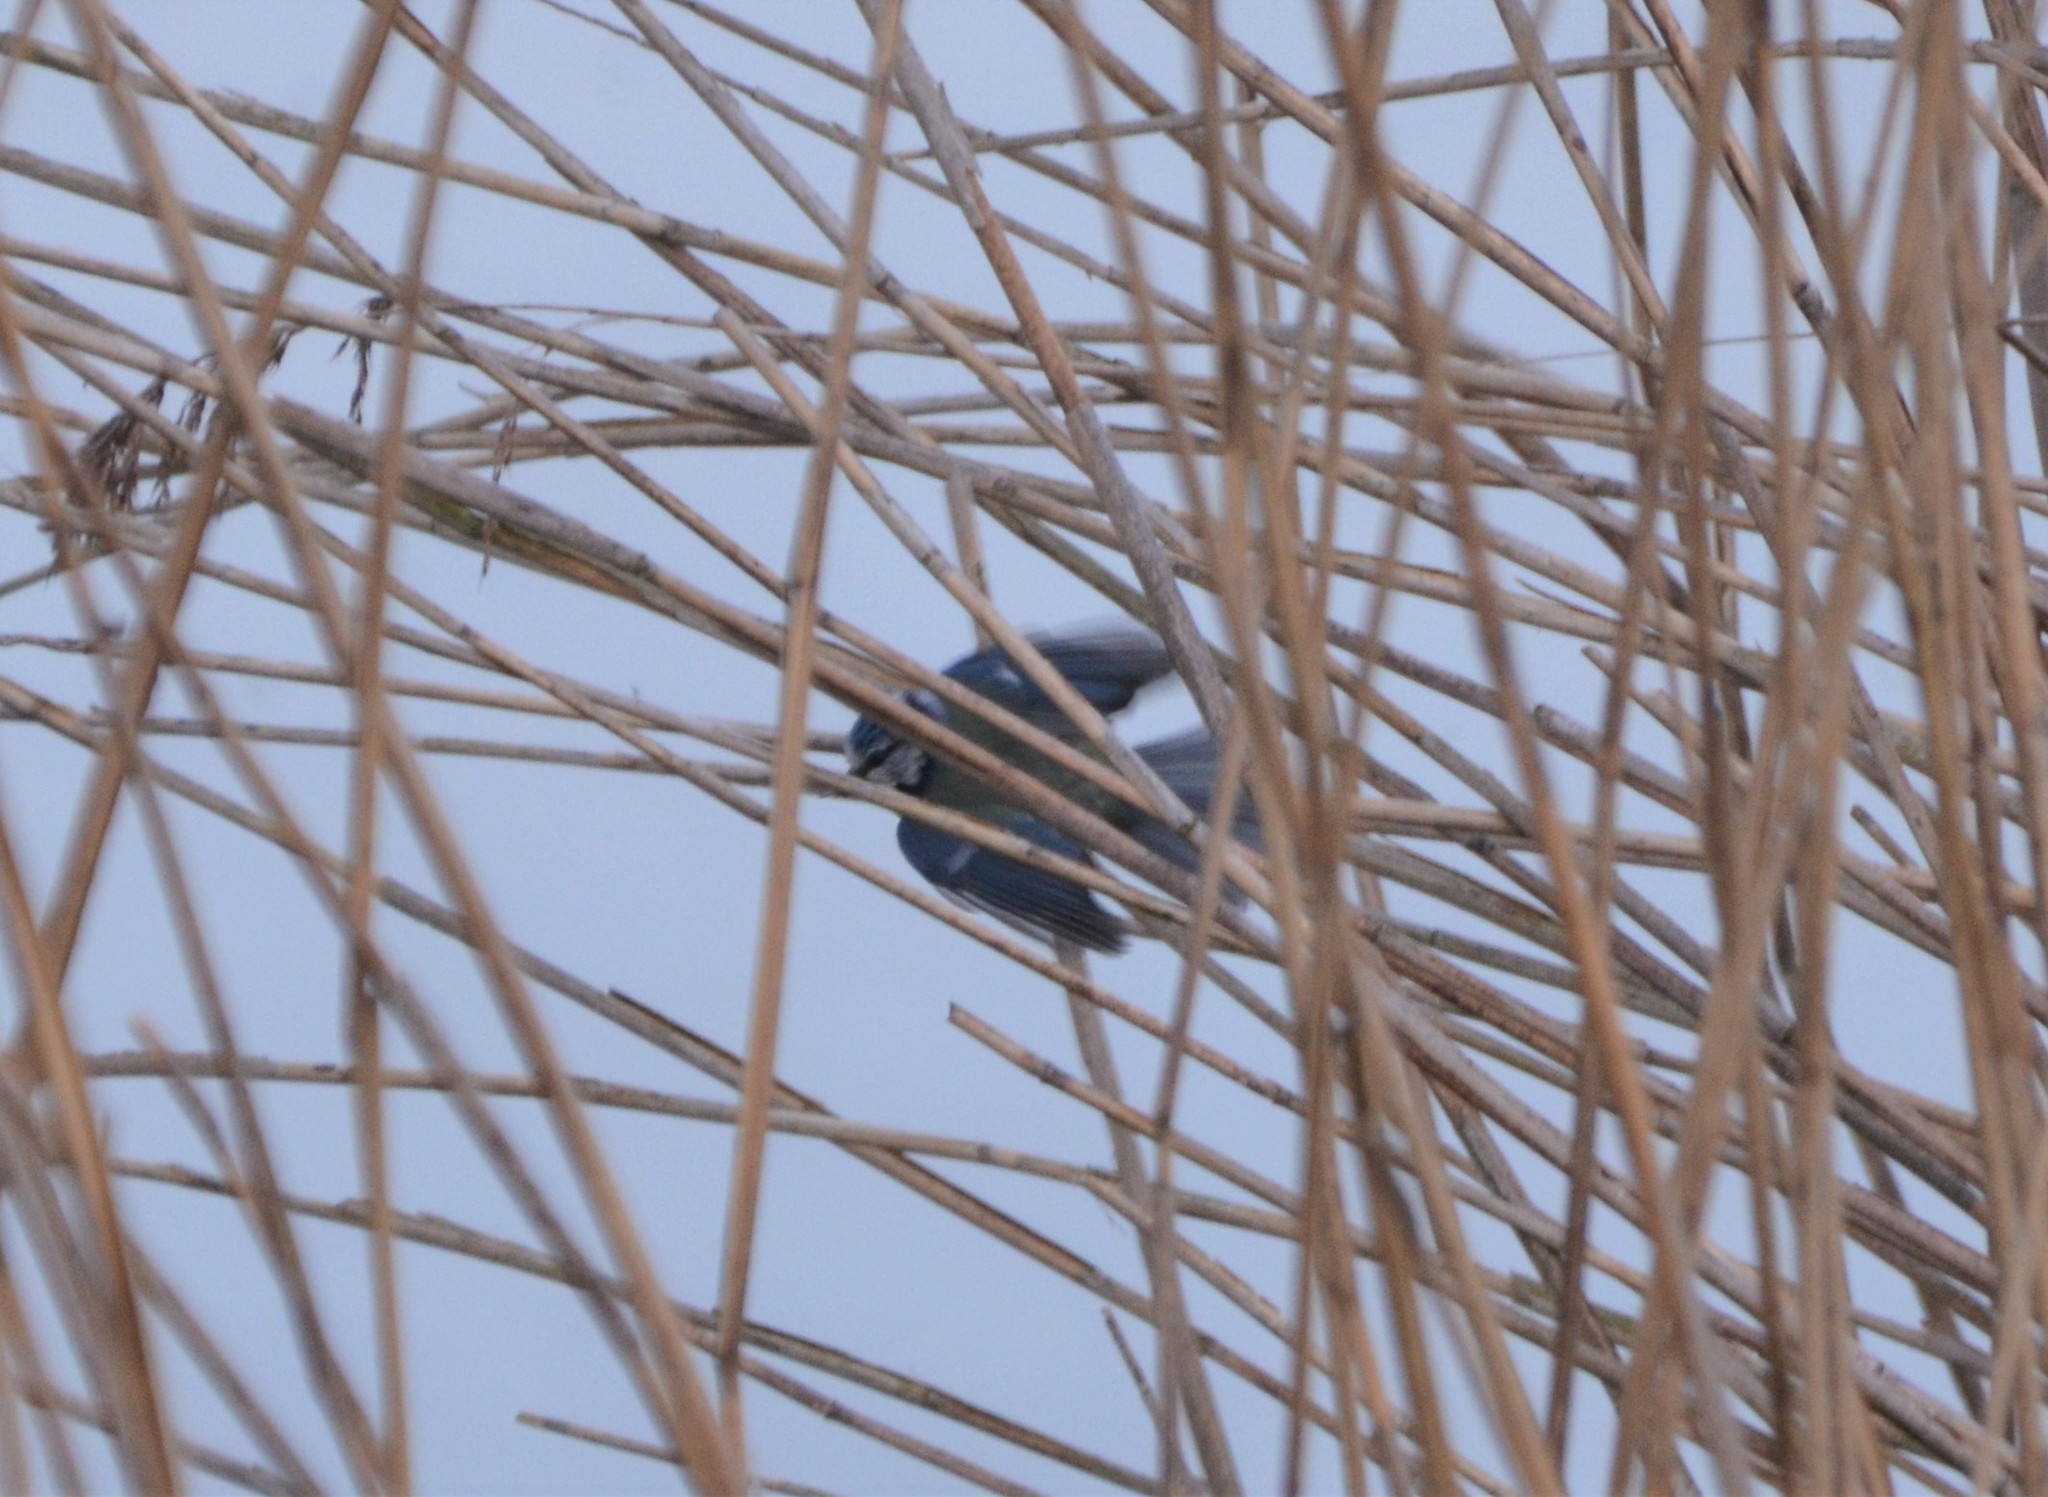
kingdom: Animalia
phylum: Chordata
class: Aves
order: Passeriformes
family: Paridae
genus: Cyanistes
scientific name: Cyanistes caeruleus
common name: Eurasian blue tit
